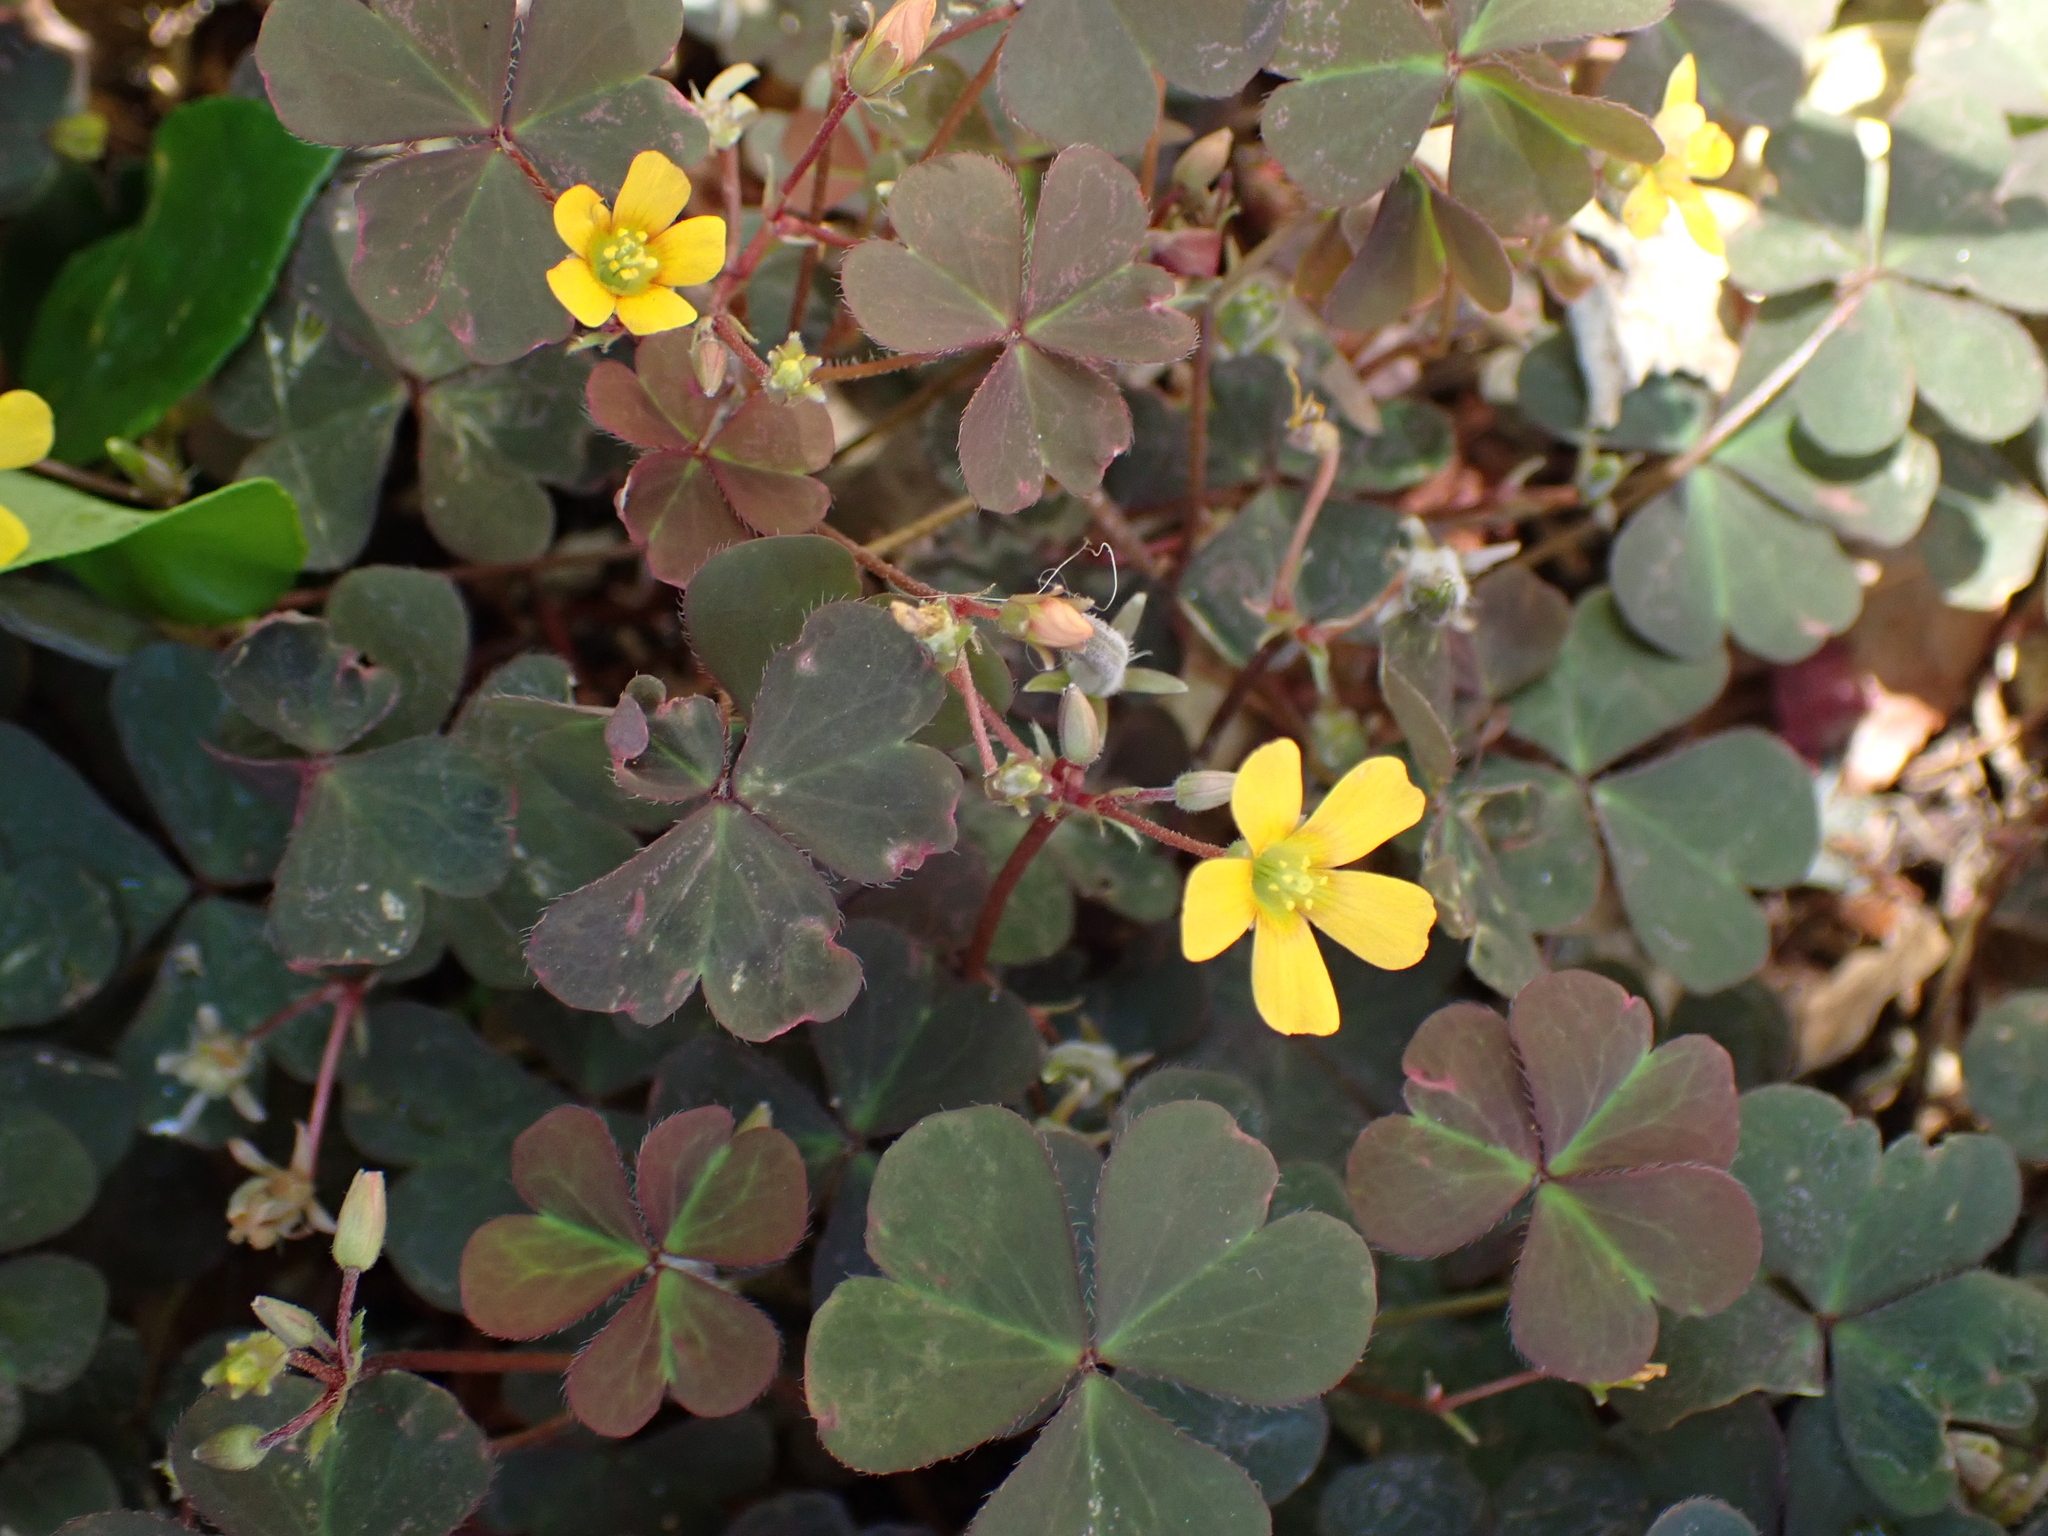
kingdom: Plantae
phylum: Tracheophyta
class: Magnoliopsida
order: Oxalidales
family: Oxalidaceae
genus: Oxalis
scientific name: Oxalis corniculata
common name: Procumbent yellow-sorrel
